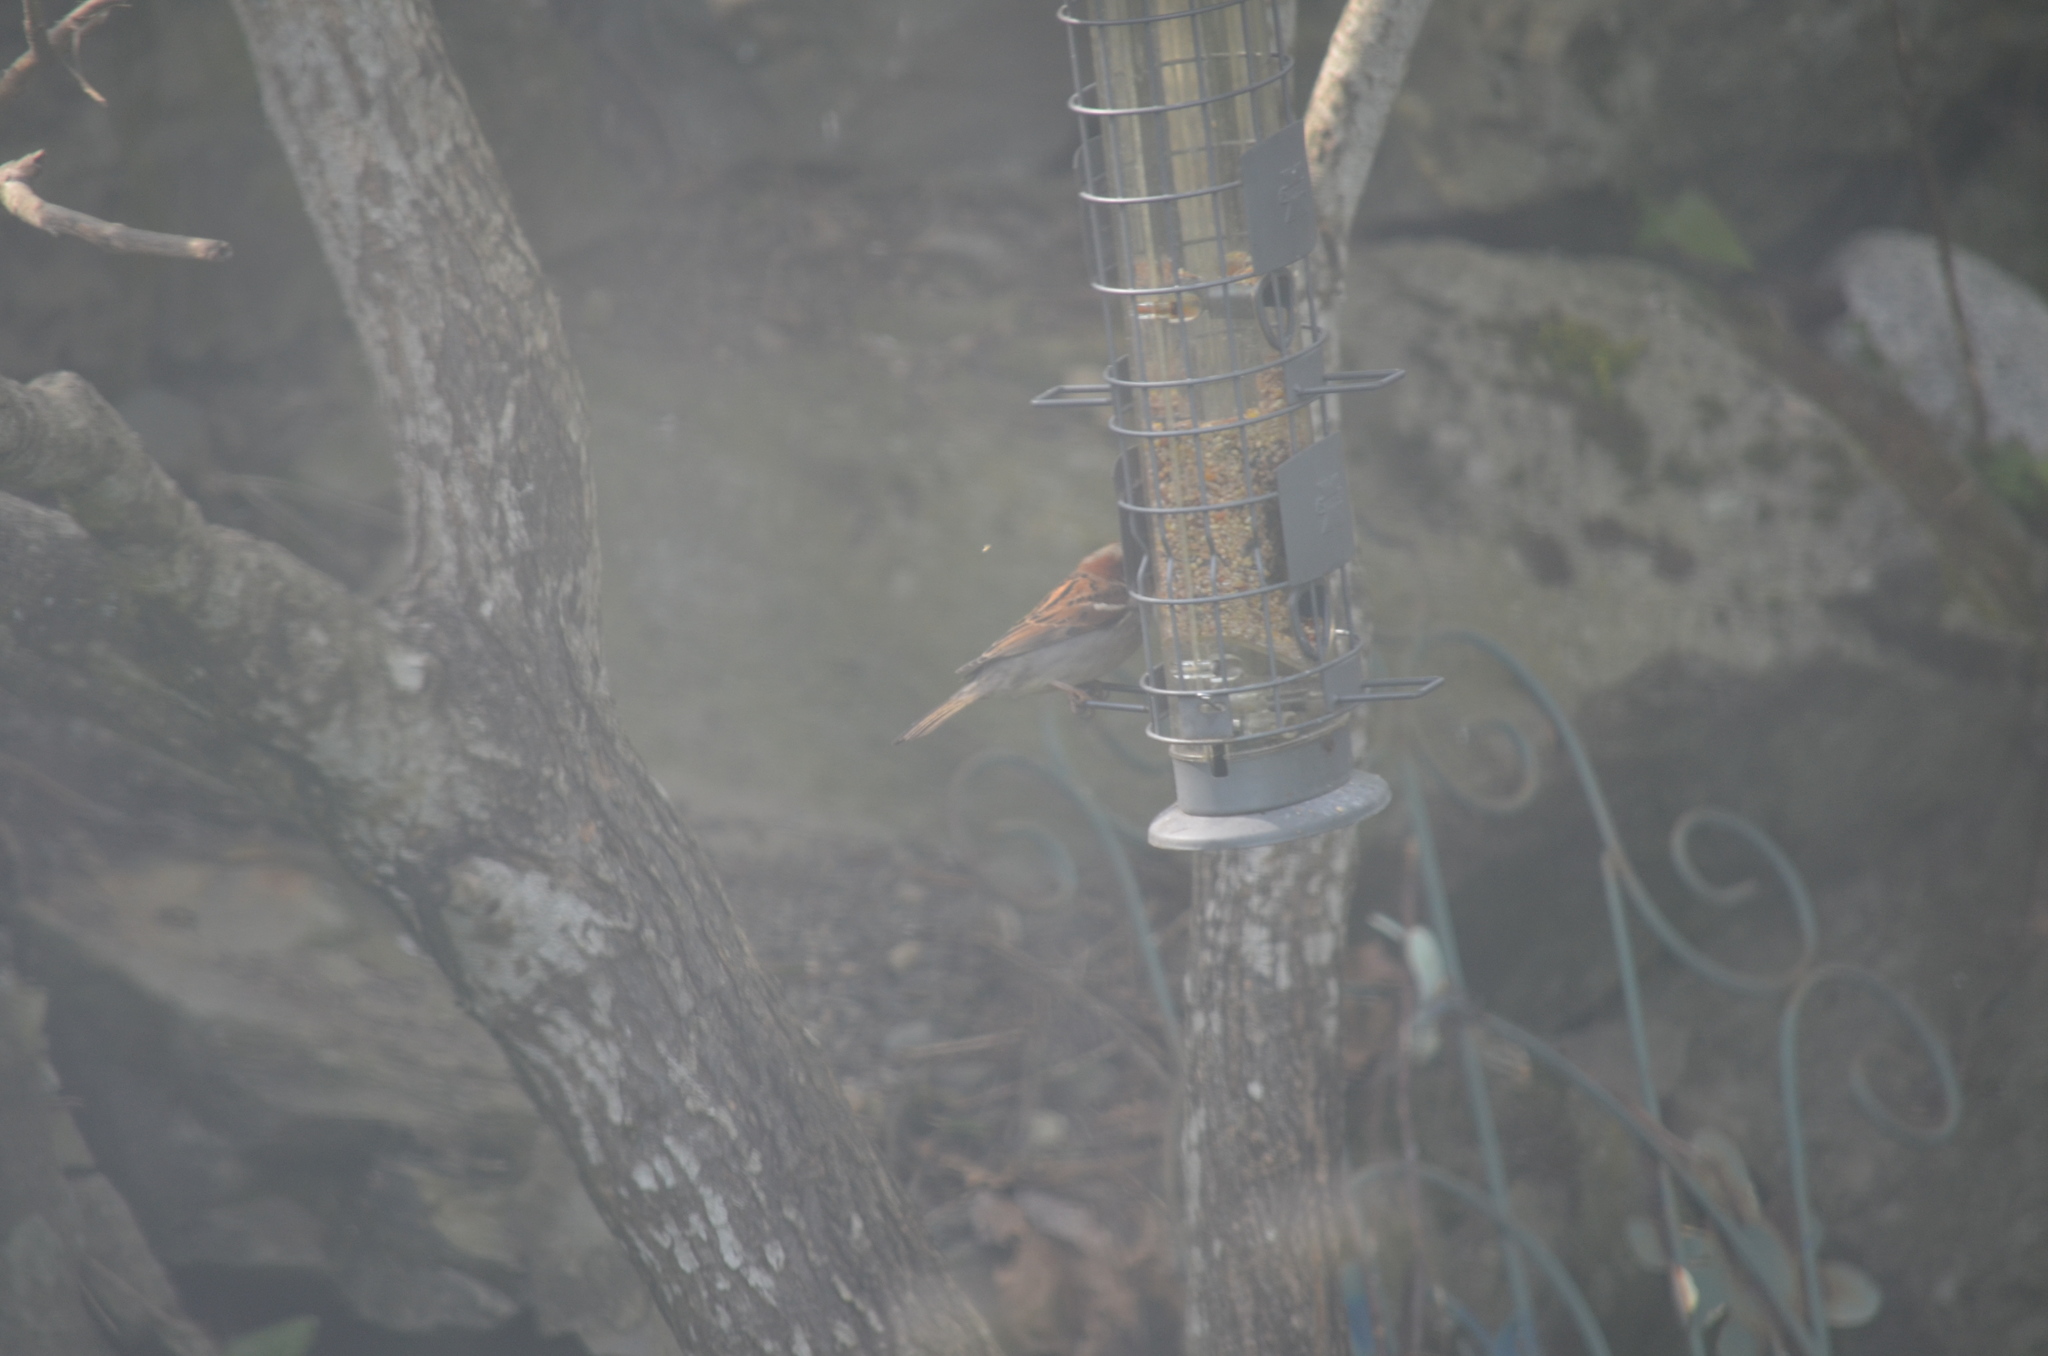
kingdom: Animalia
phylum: Chordata
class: Aves
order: Passeriformes
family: Passeridae
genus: Passer
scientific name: Passer domesticus
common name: House sparrow
